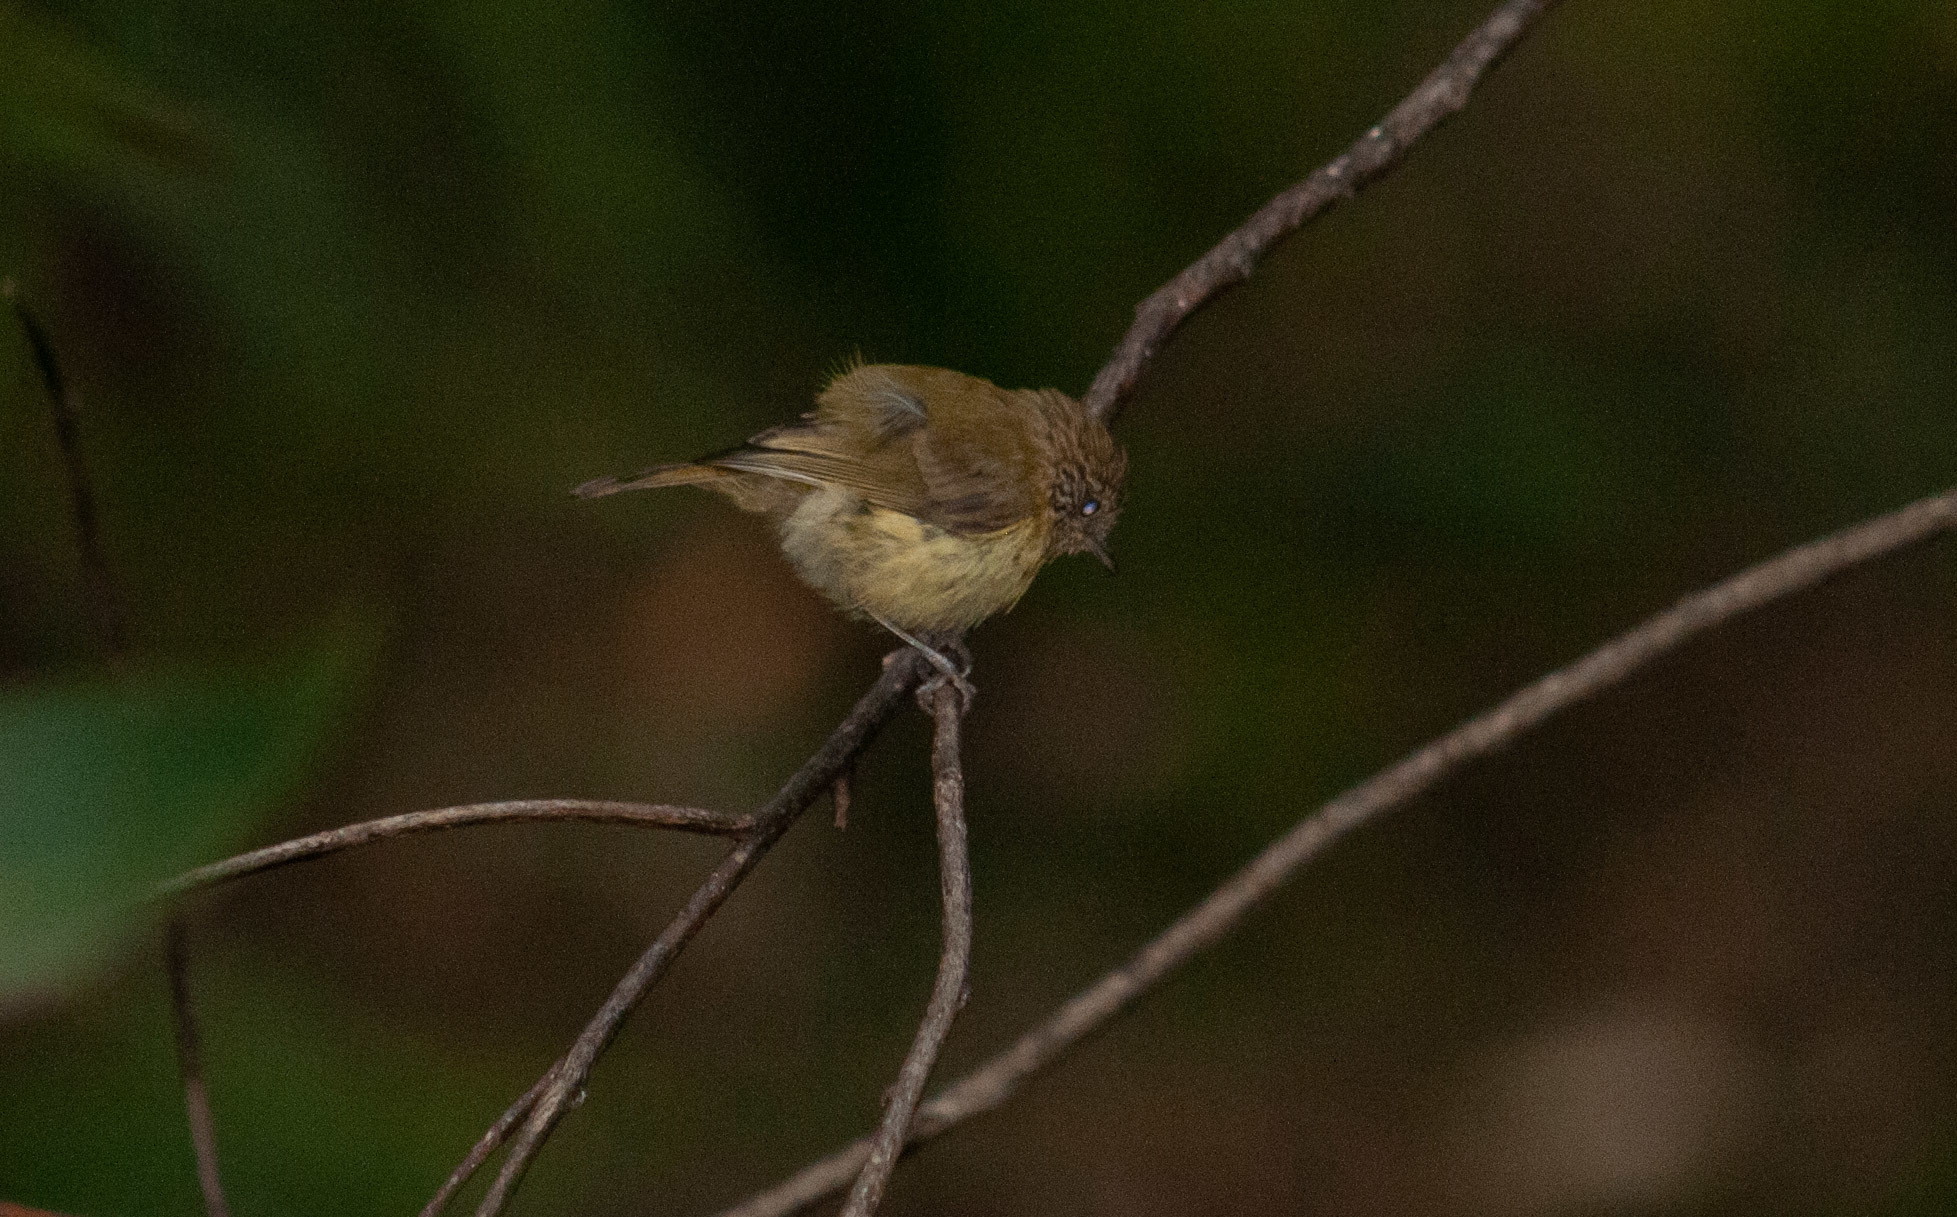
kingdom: Animalia
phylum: Chordata
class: Aves
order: Passeriformes
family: Acanthizidae
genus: Acanthiza
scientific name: Acanthiza pusilla
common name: Brown thornbill
